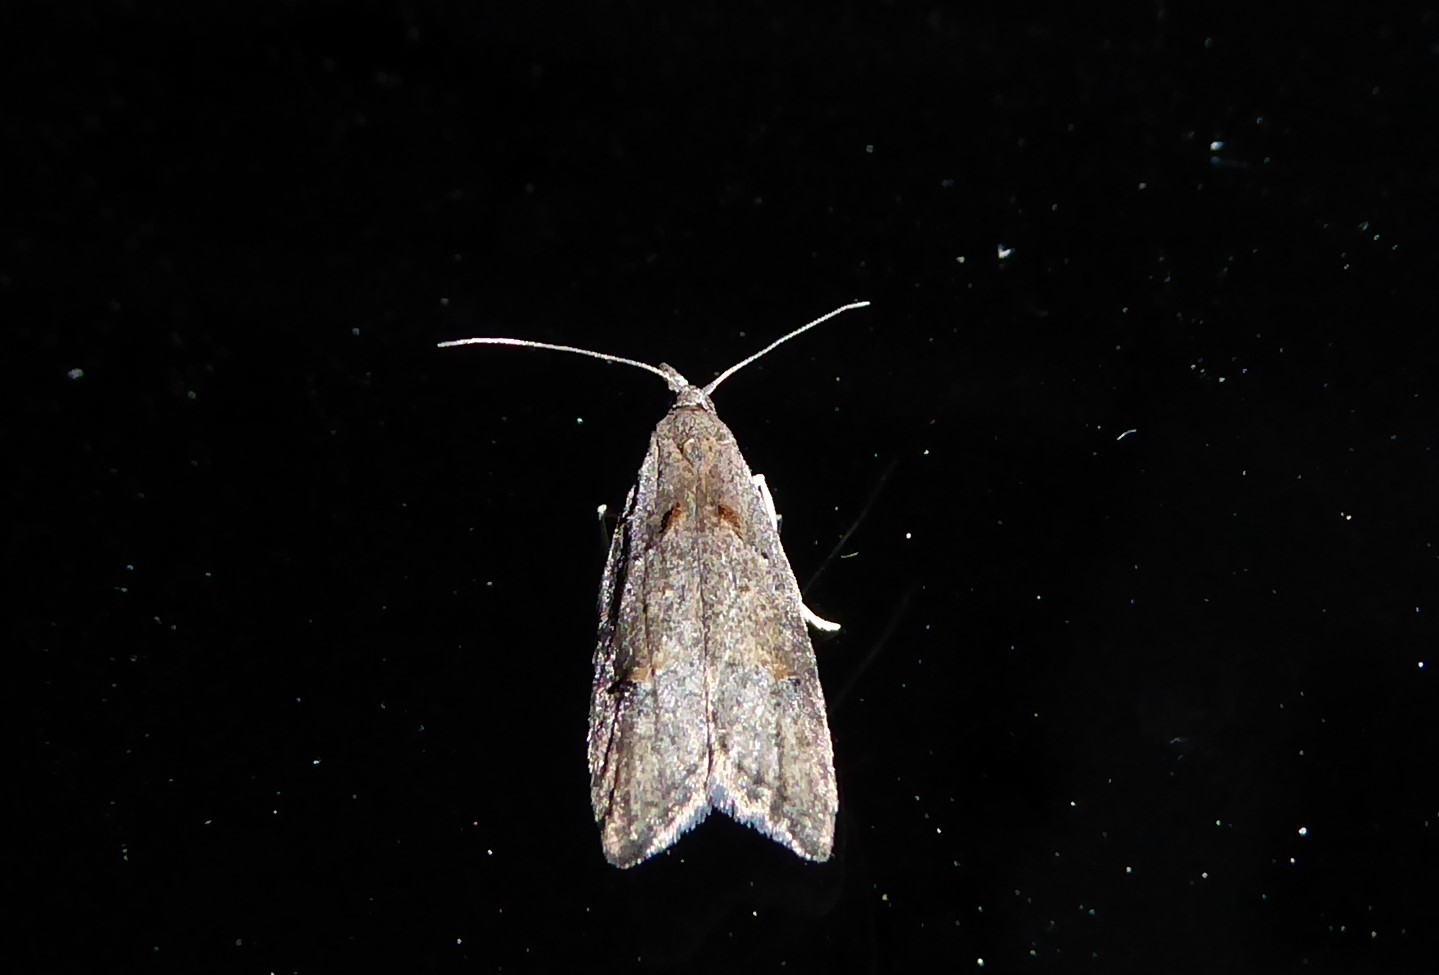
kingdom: Animalia
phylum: Arthropoda
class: Insecta
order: Lepidoptera
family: Carposinidae
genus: Carposina
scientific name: Carposina rubophaga
